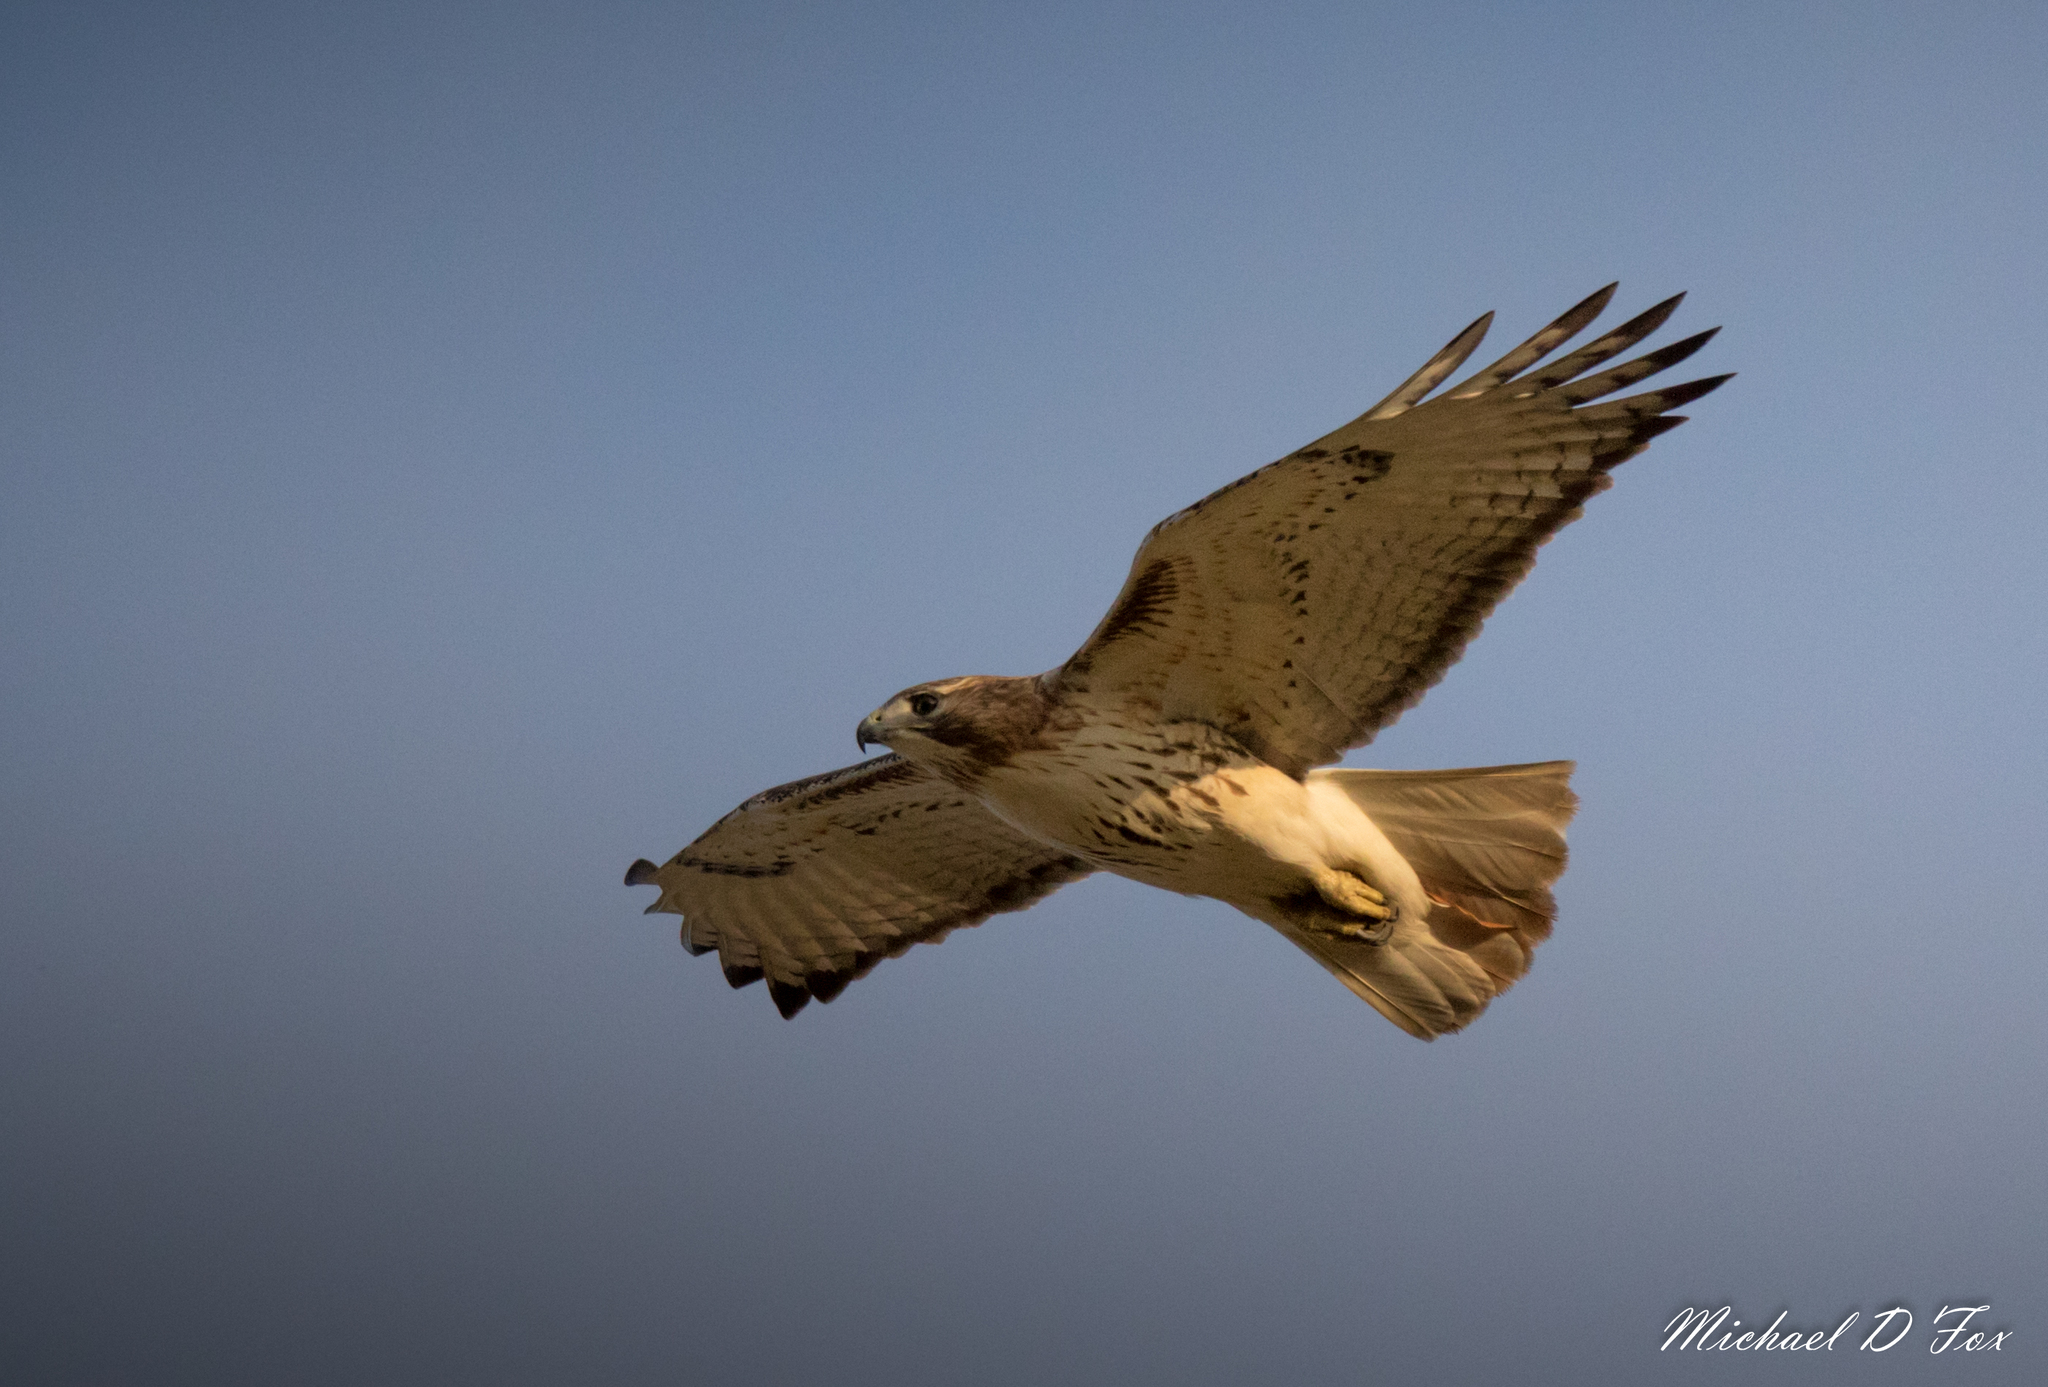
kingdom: Animalia
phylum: Chordata
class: Aves
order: Accipitriformes
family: Accipitridae
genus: Buteo
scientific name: Buteo jamaicensis
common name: Red-tailed hawk
